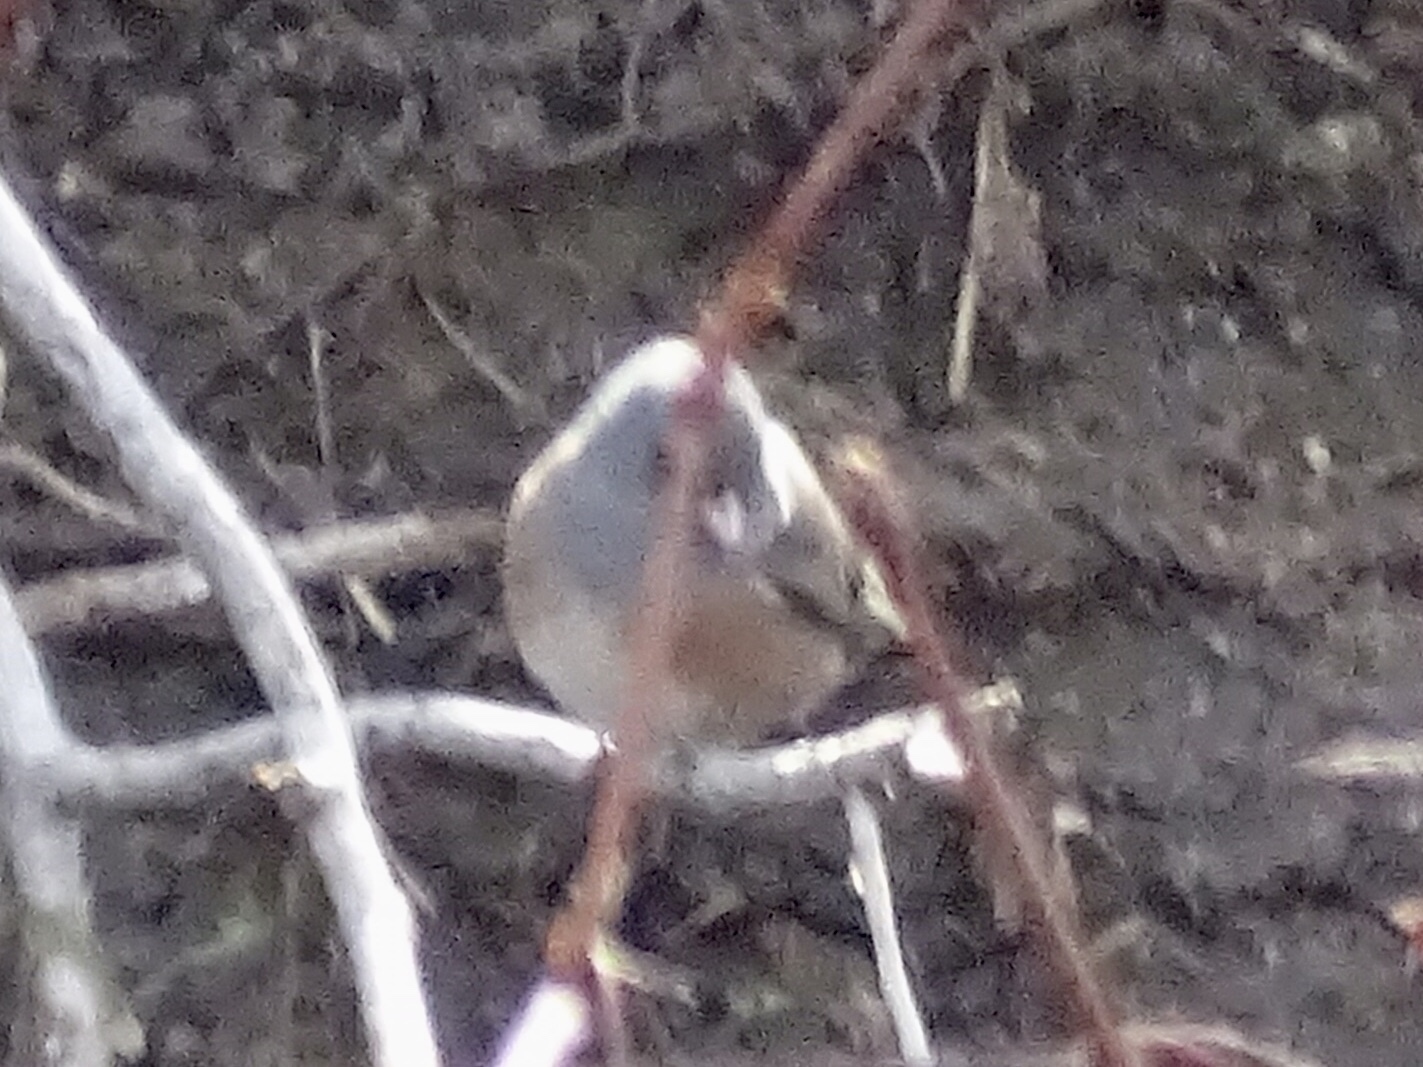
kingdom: Animalia
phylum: Chordata
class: Aves
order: Passeriformes
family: Passerellidae
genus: Junco
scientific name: Junco hyemalis
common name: Dark-eyed junco
